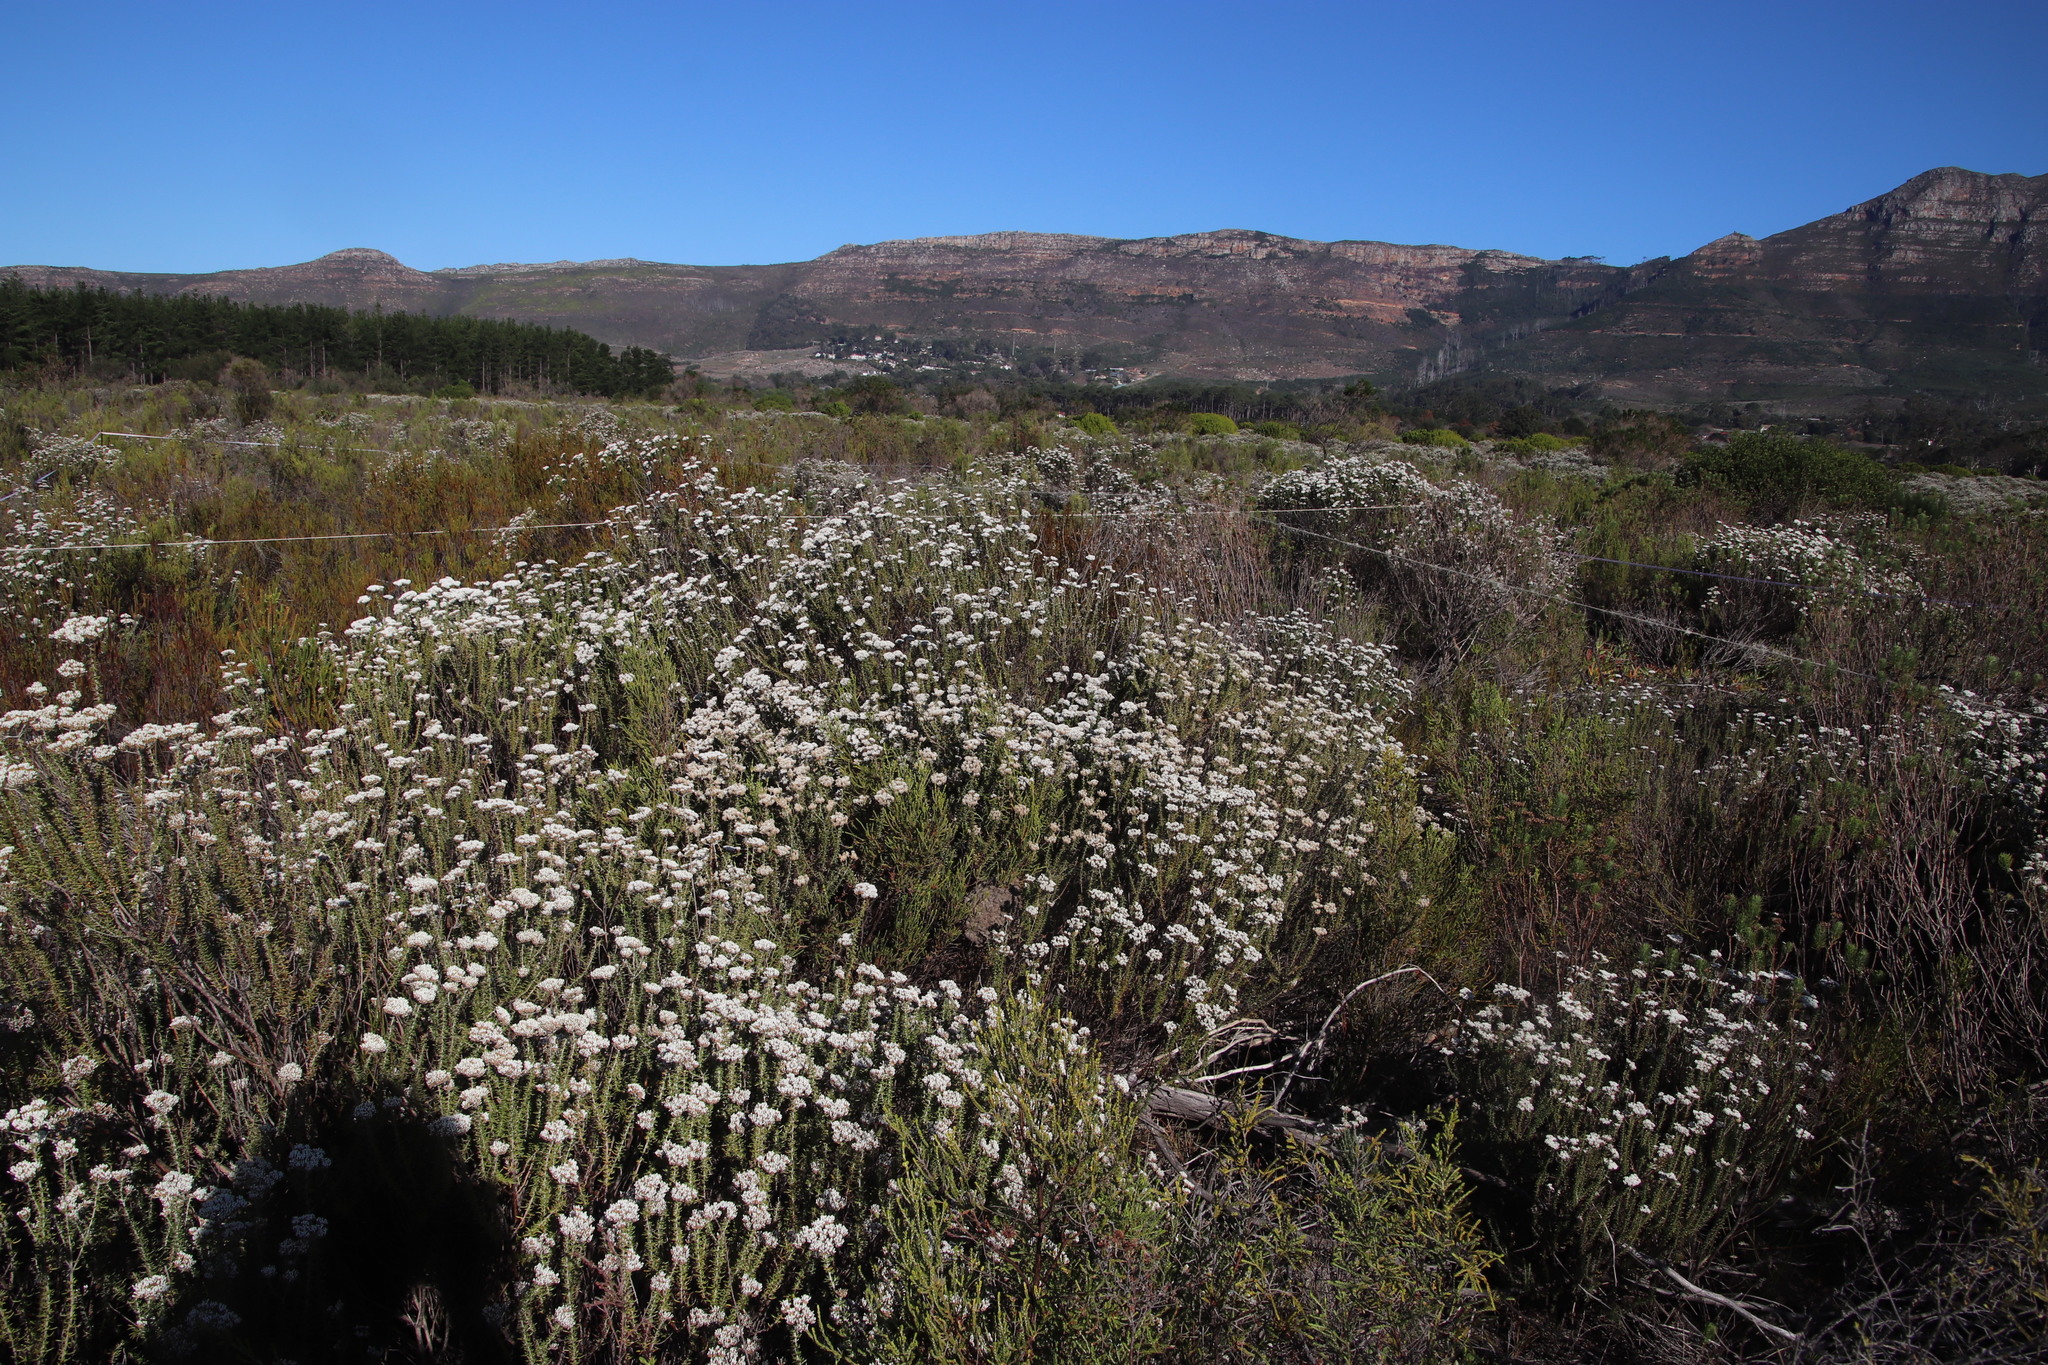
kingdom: Plantae
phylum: Tracheophyta
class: Magnoliopsida
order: Asterales
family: Asteraceae
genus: Metalasia
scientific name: Metalasia densa
